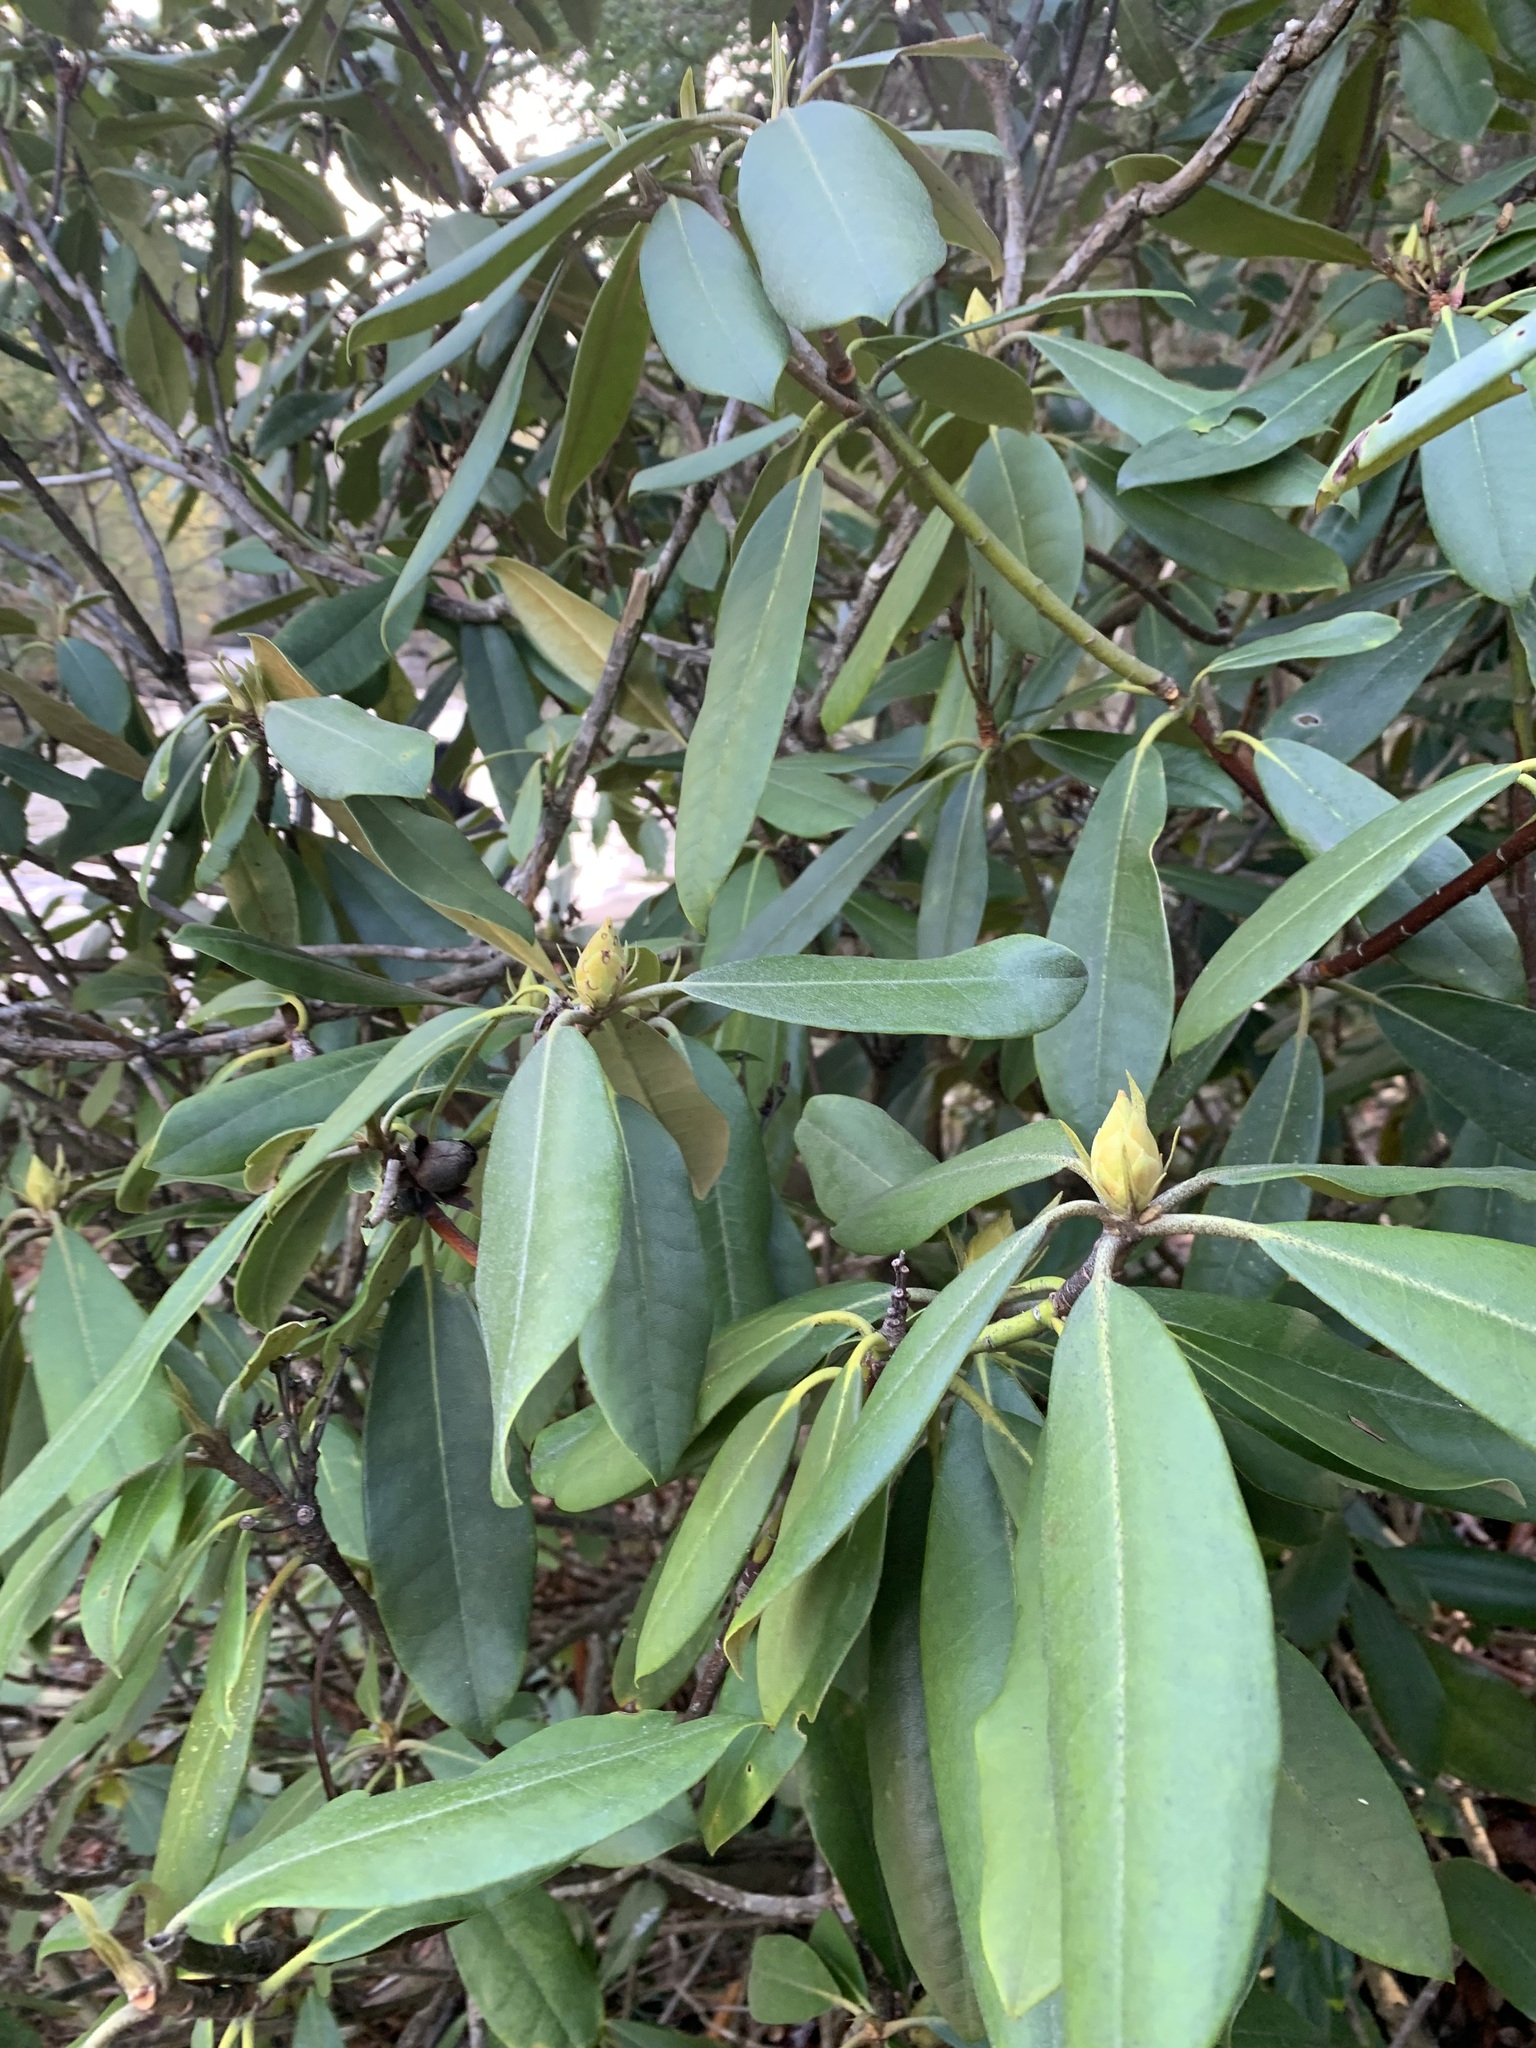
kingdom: Plantae
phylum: Tracheophyta
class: Magnoliopsida
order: Ericales
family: Ericaceae
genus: Rhododendron
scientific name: Rhododendron maximum
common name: Great rhododendron
